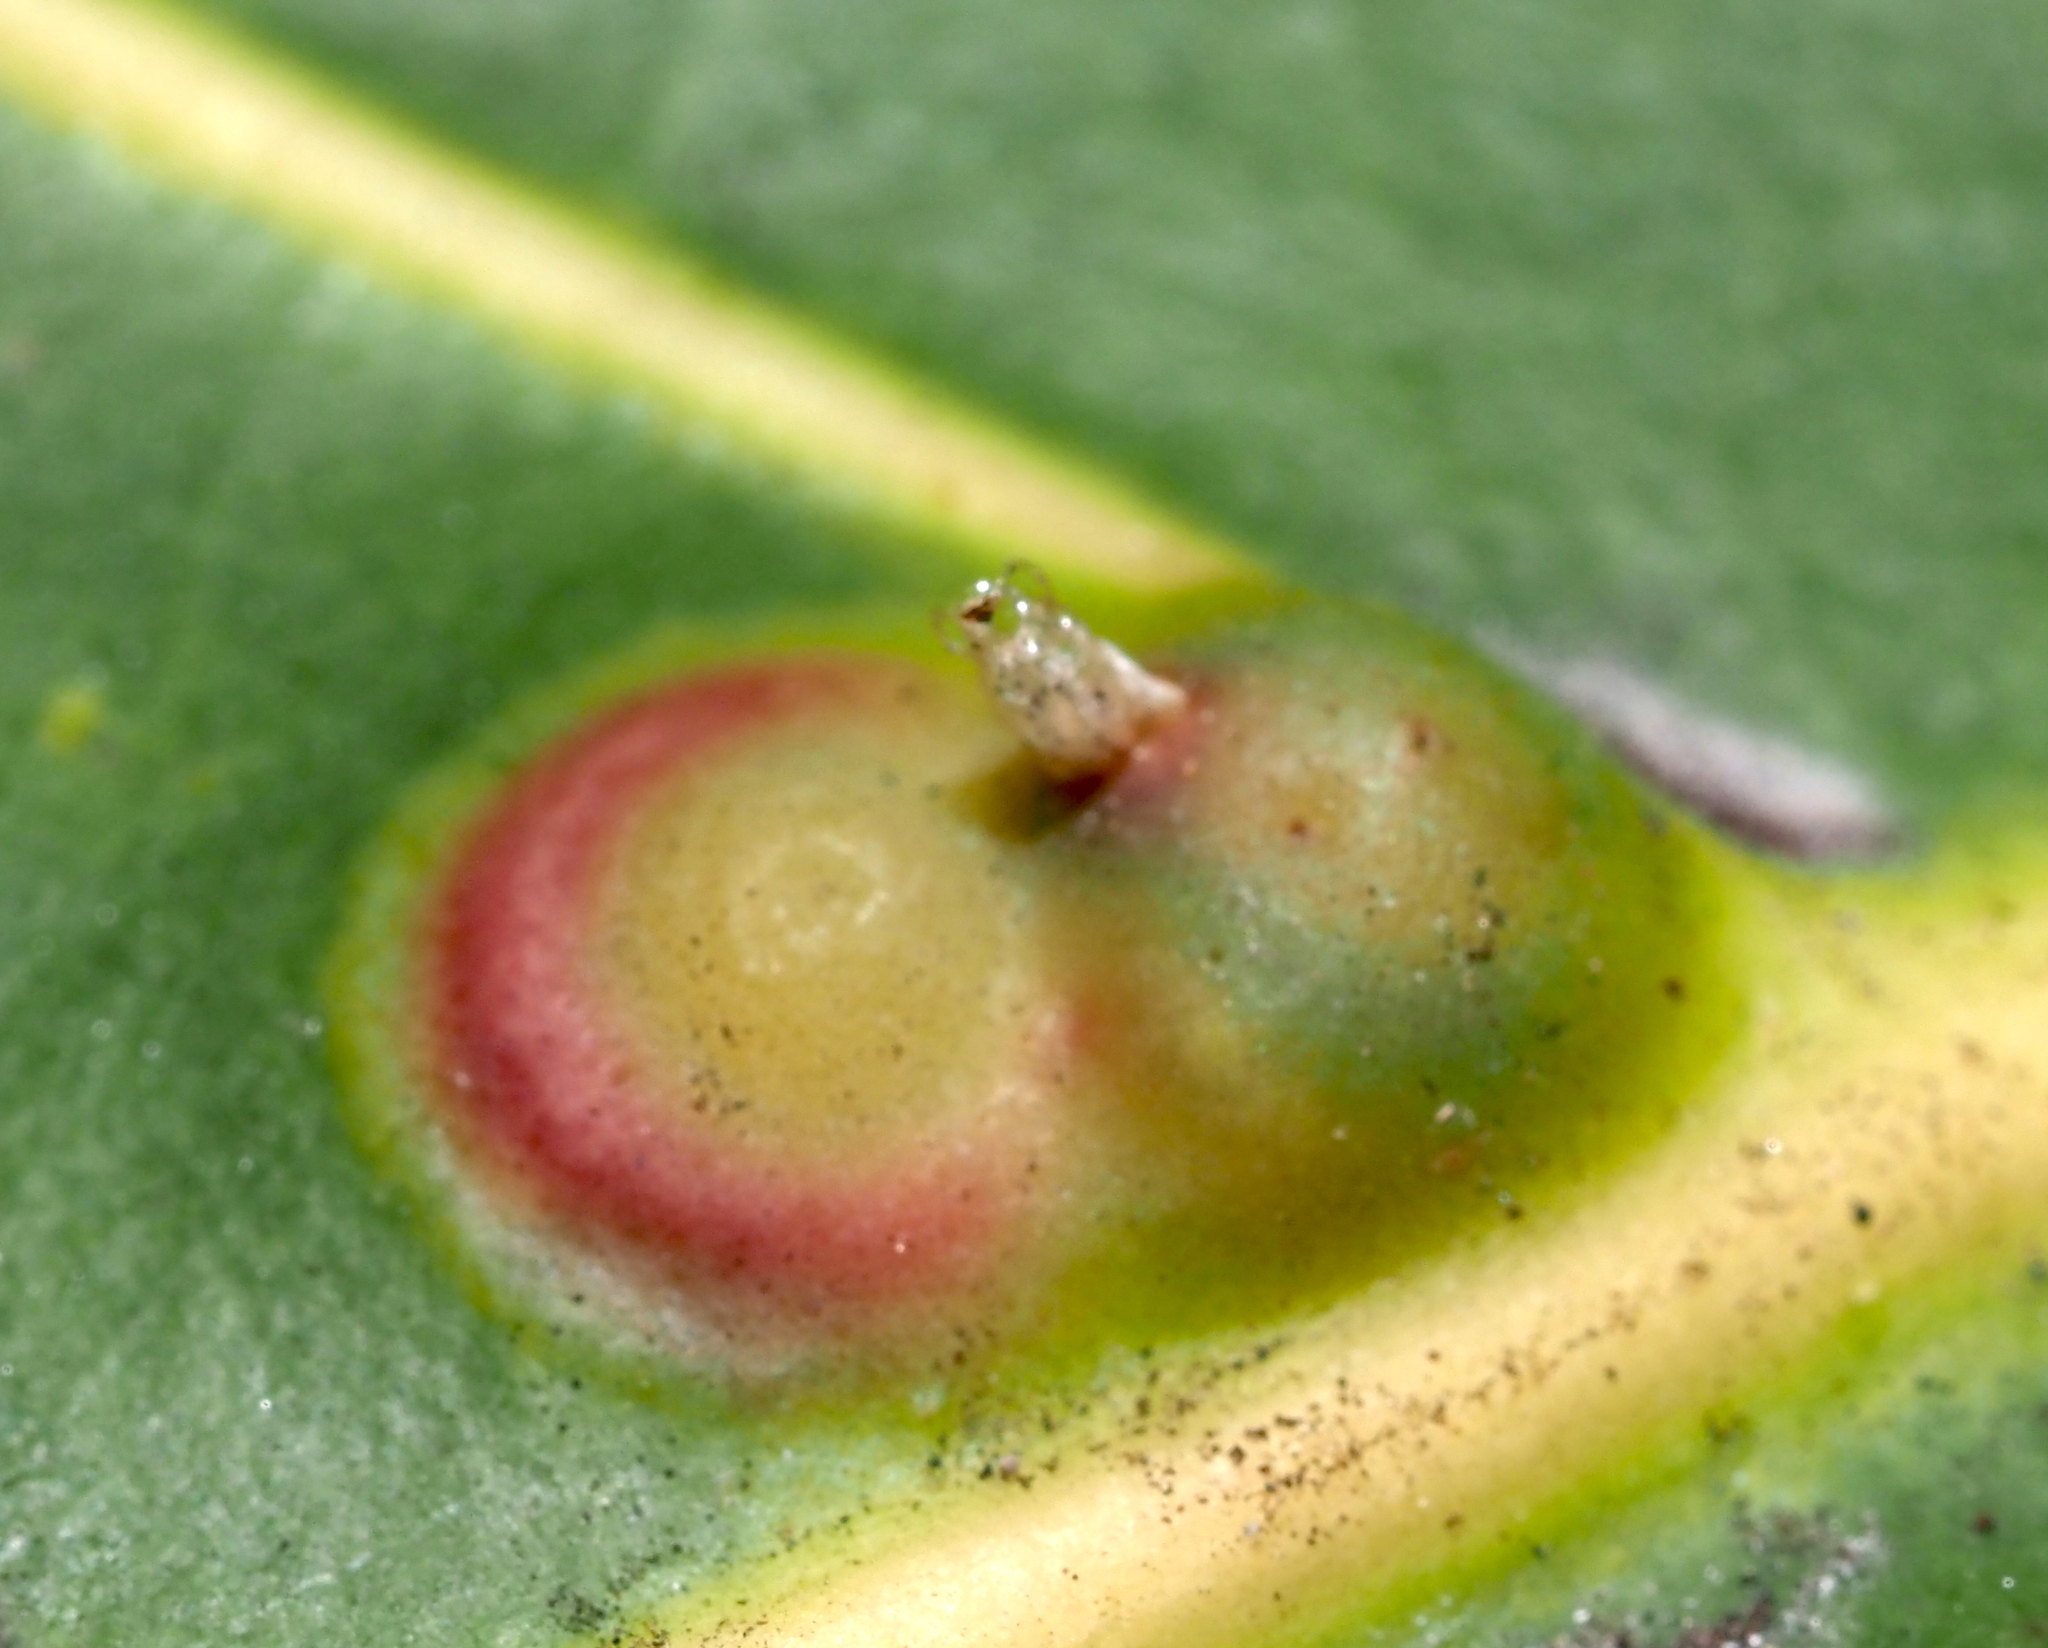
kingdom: Animalia
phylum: Arthropoda
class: Insecta
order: Diptera
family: Cecidomyiidae
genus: Ctenodactylomyia
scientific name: Ctenodactylomyia watsoni
